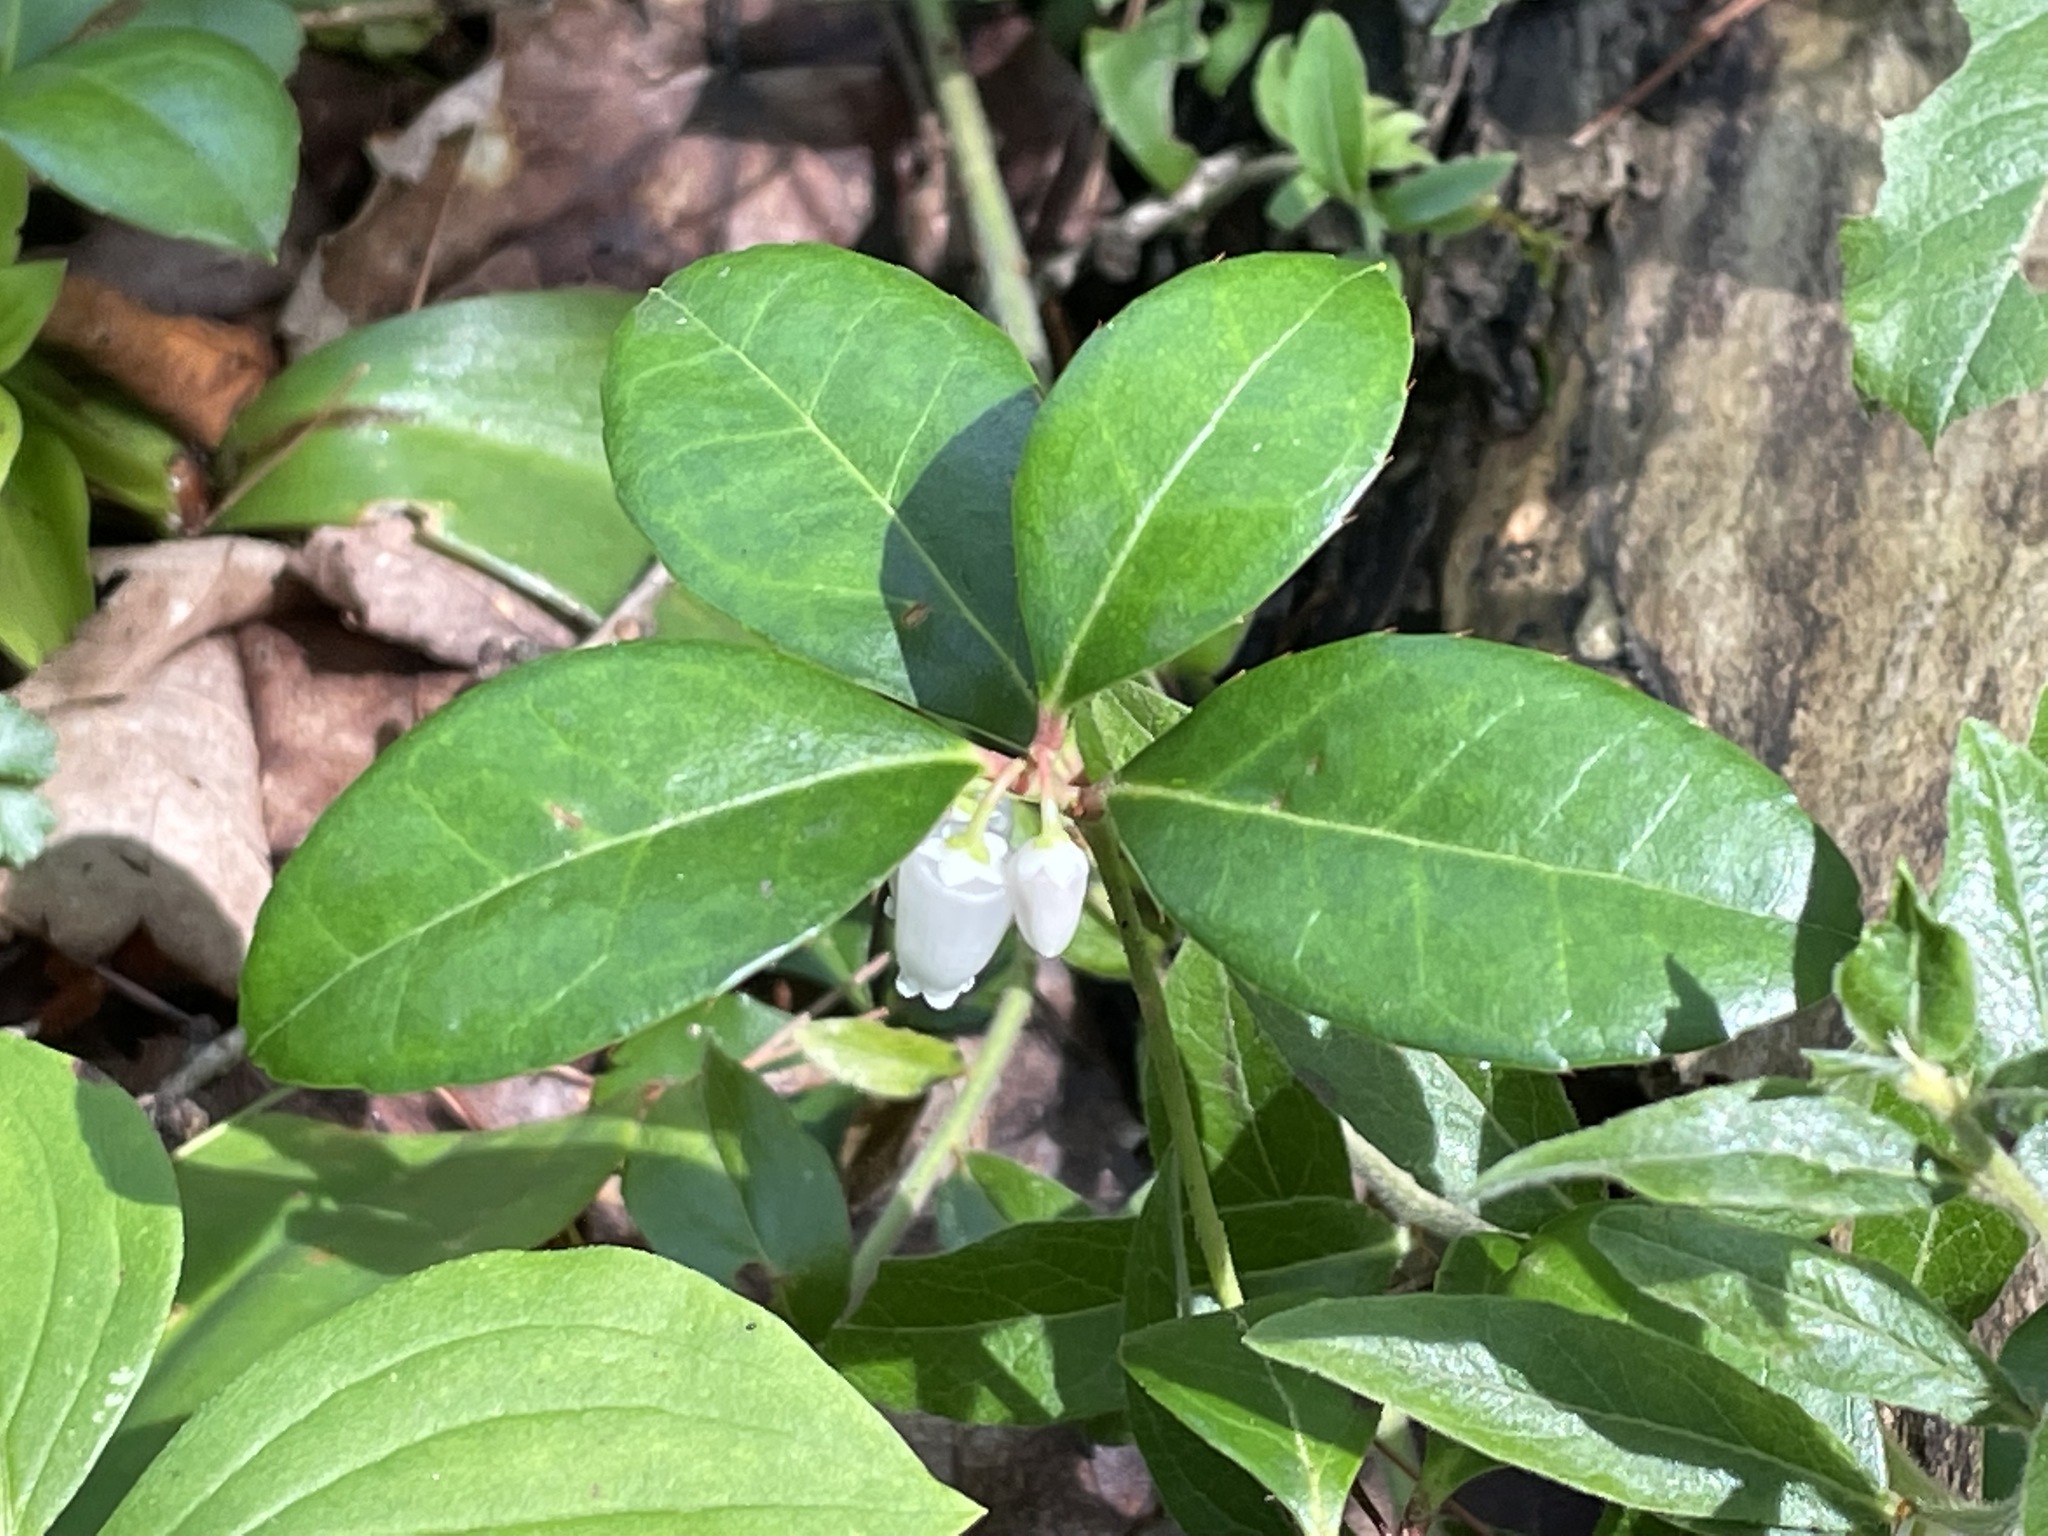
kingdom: Plantae
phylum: Tracheophyta
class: Magnoliopsida
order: Ericales
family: Ericaceae
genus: Gaultheria
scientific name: Gaultheria procumbens
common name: Checkerberry
